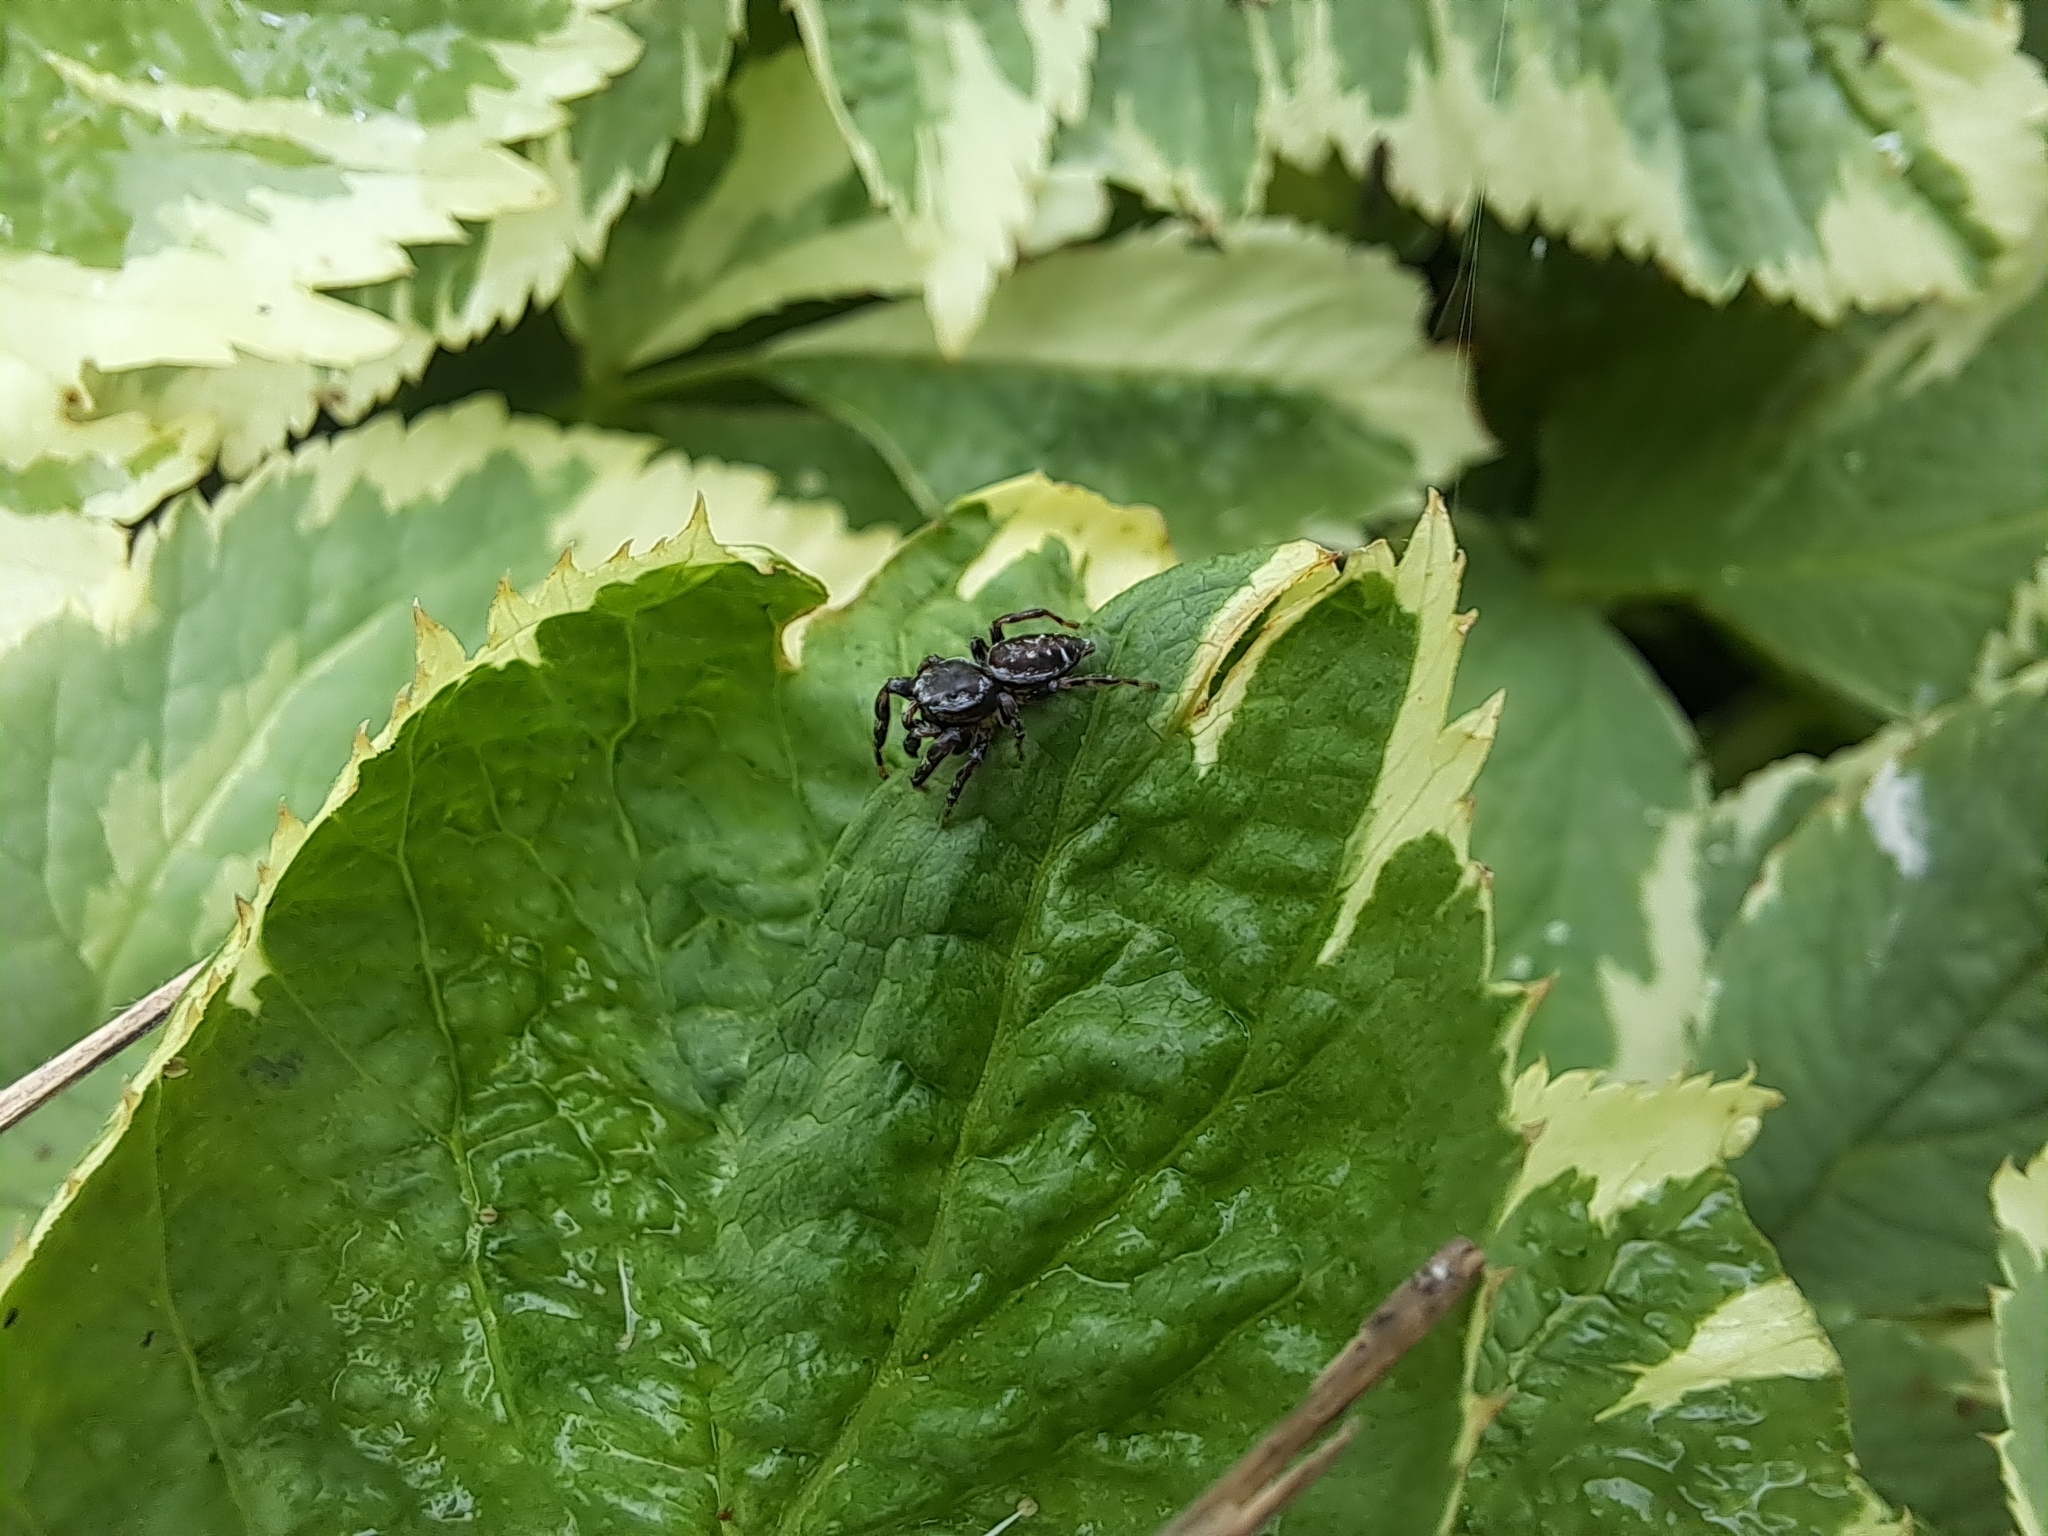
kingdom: Animalia
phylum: Arthropoda
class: Arachnida
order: Araneae
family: Salticidae
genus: Pelegrina
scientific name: Pelegrina galathea
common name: Jumping spiders
